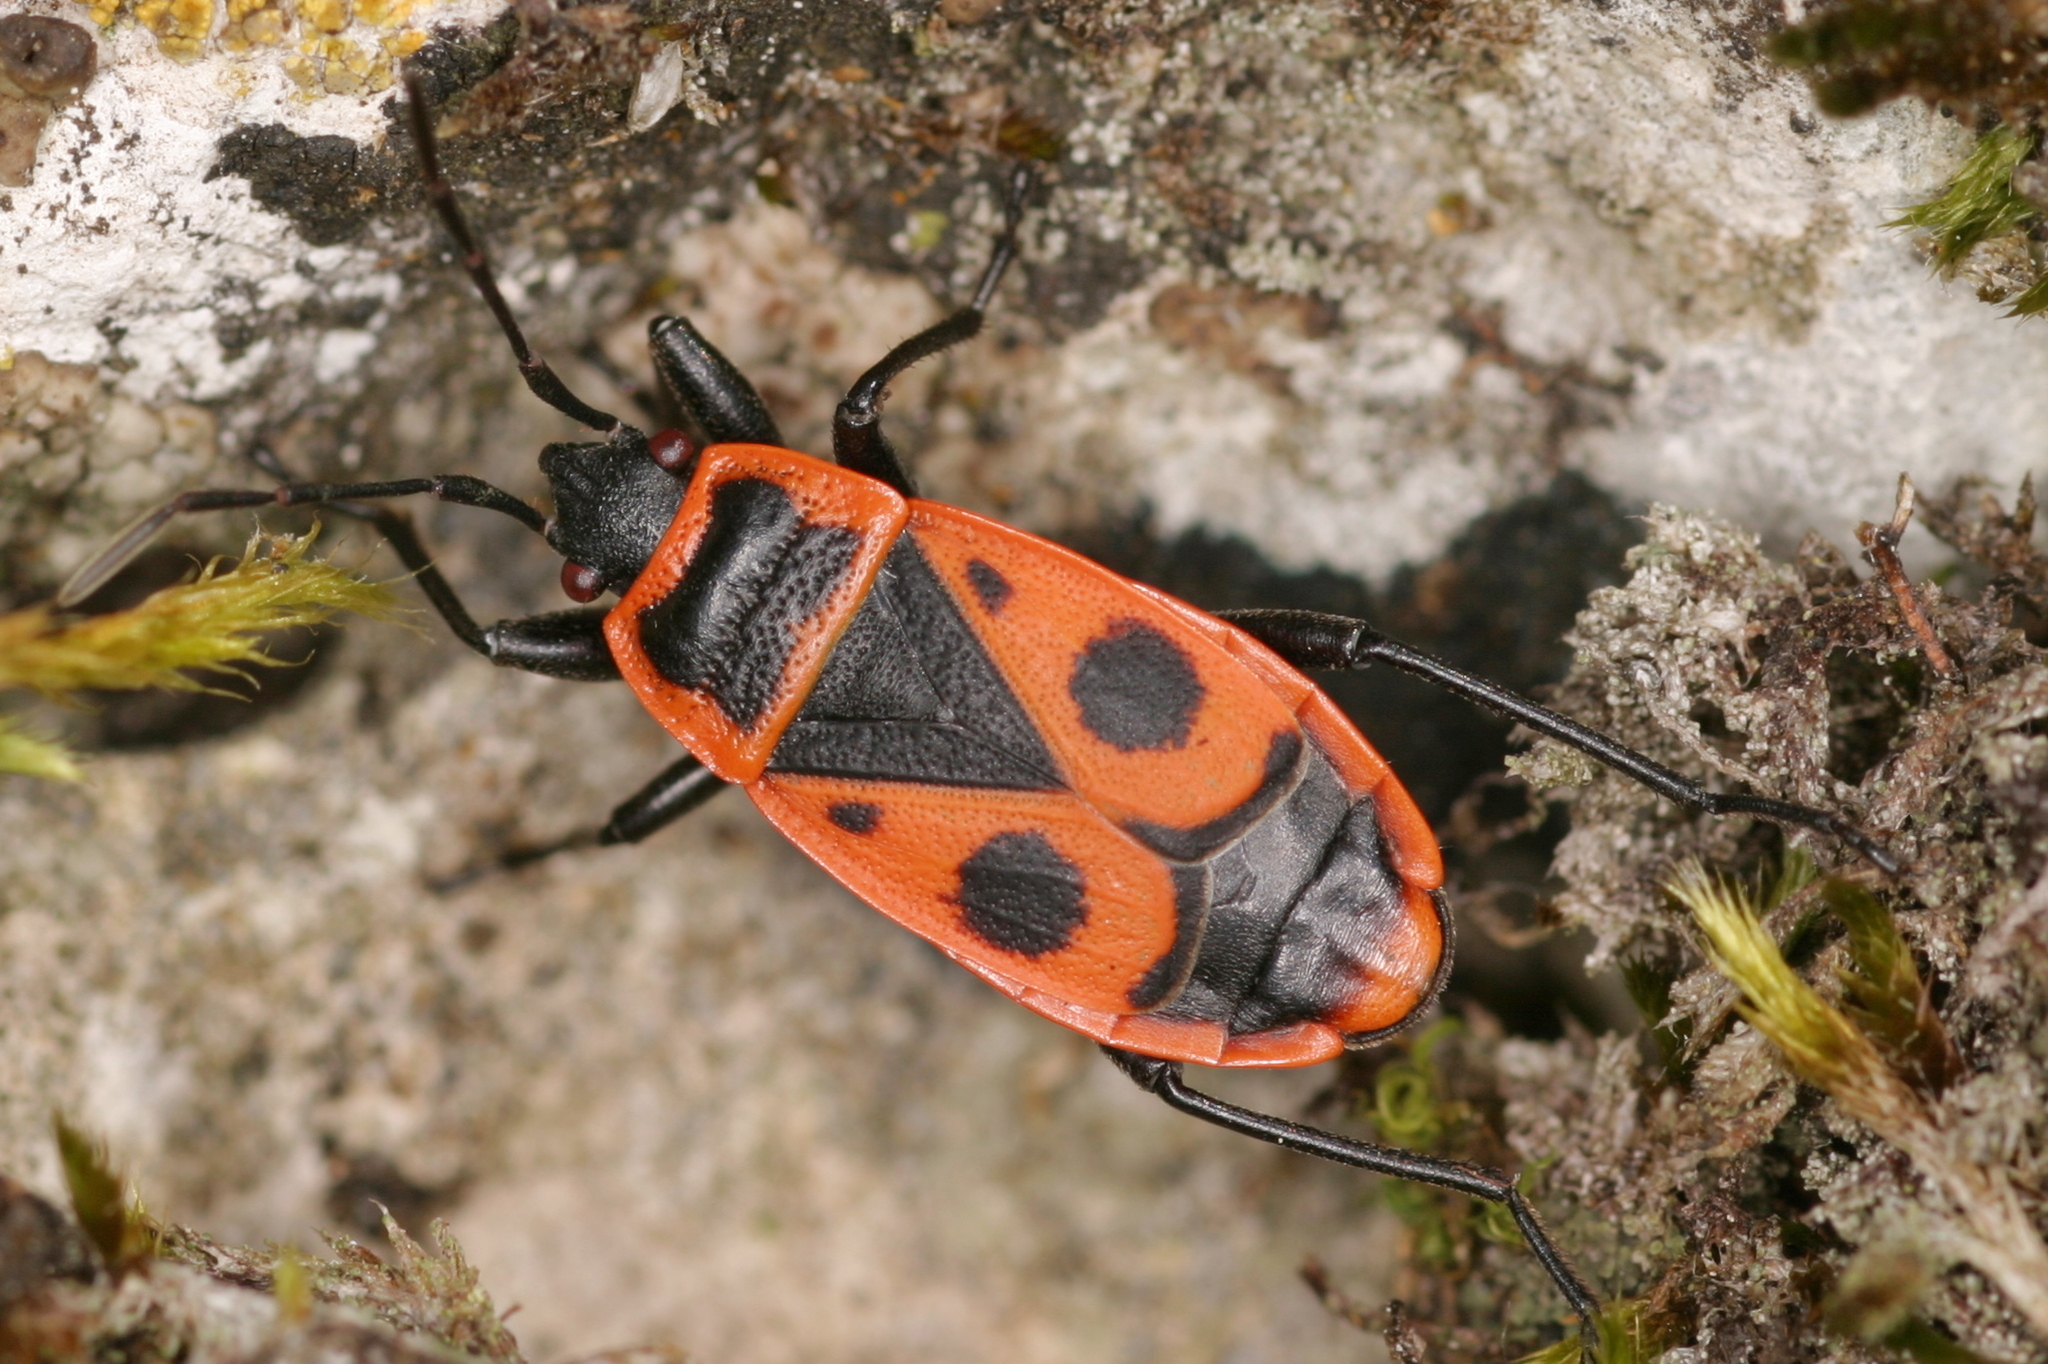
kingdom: Animalia
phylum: Arthropoda
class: Insecta
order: Hemiptera
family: Pyrrhocoridae
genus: Pyrrhocoris
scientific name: Pyrrhocoris apterus
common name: Firebug
